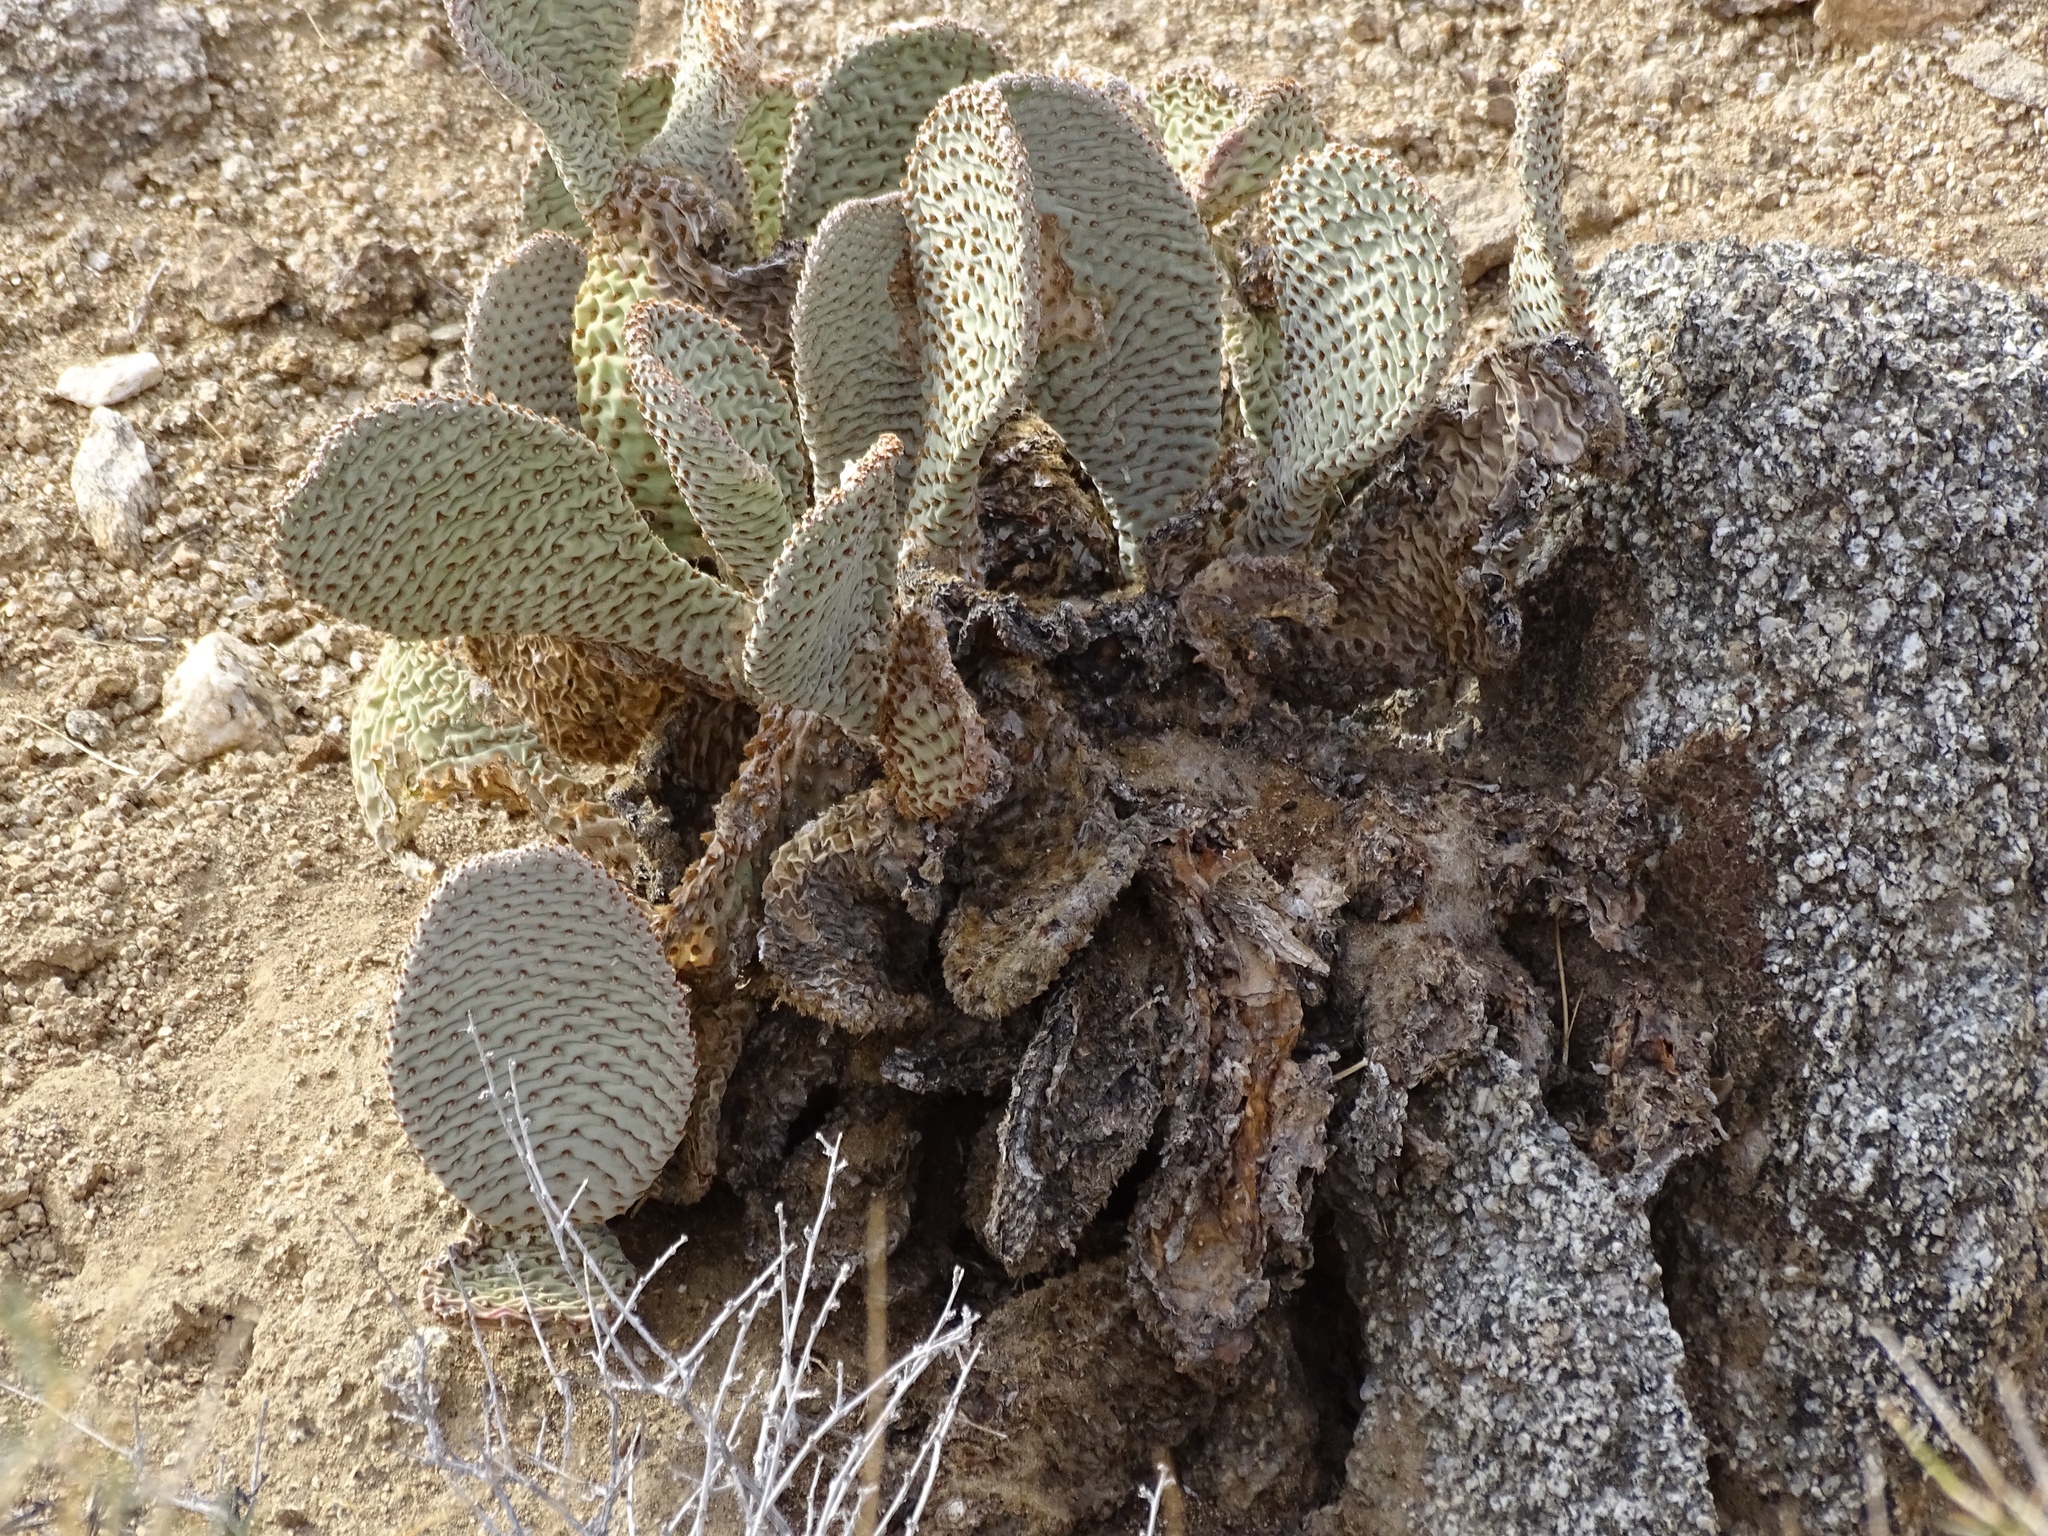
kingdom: Plantae
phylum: Tracheophyta
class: Magnoliopsida
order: Caryophyllales
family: Cactaceae
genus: Opuntia
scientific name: Opuntia basilaris
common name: Beavertail prickly-pear
